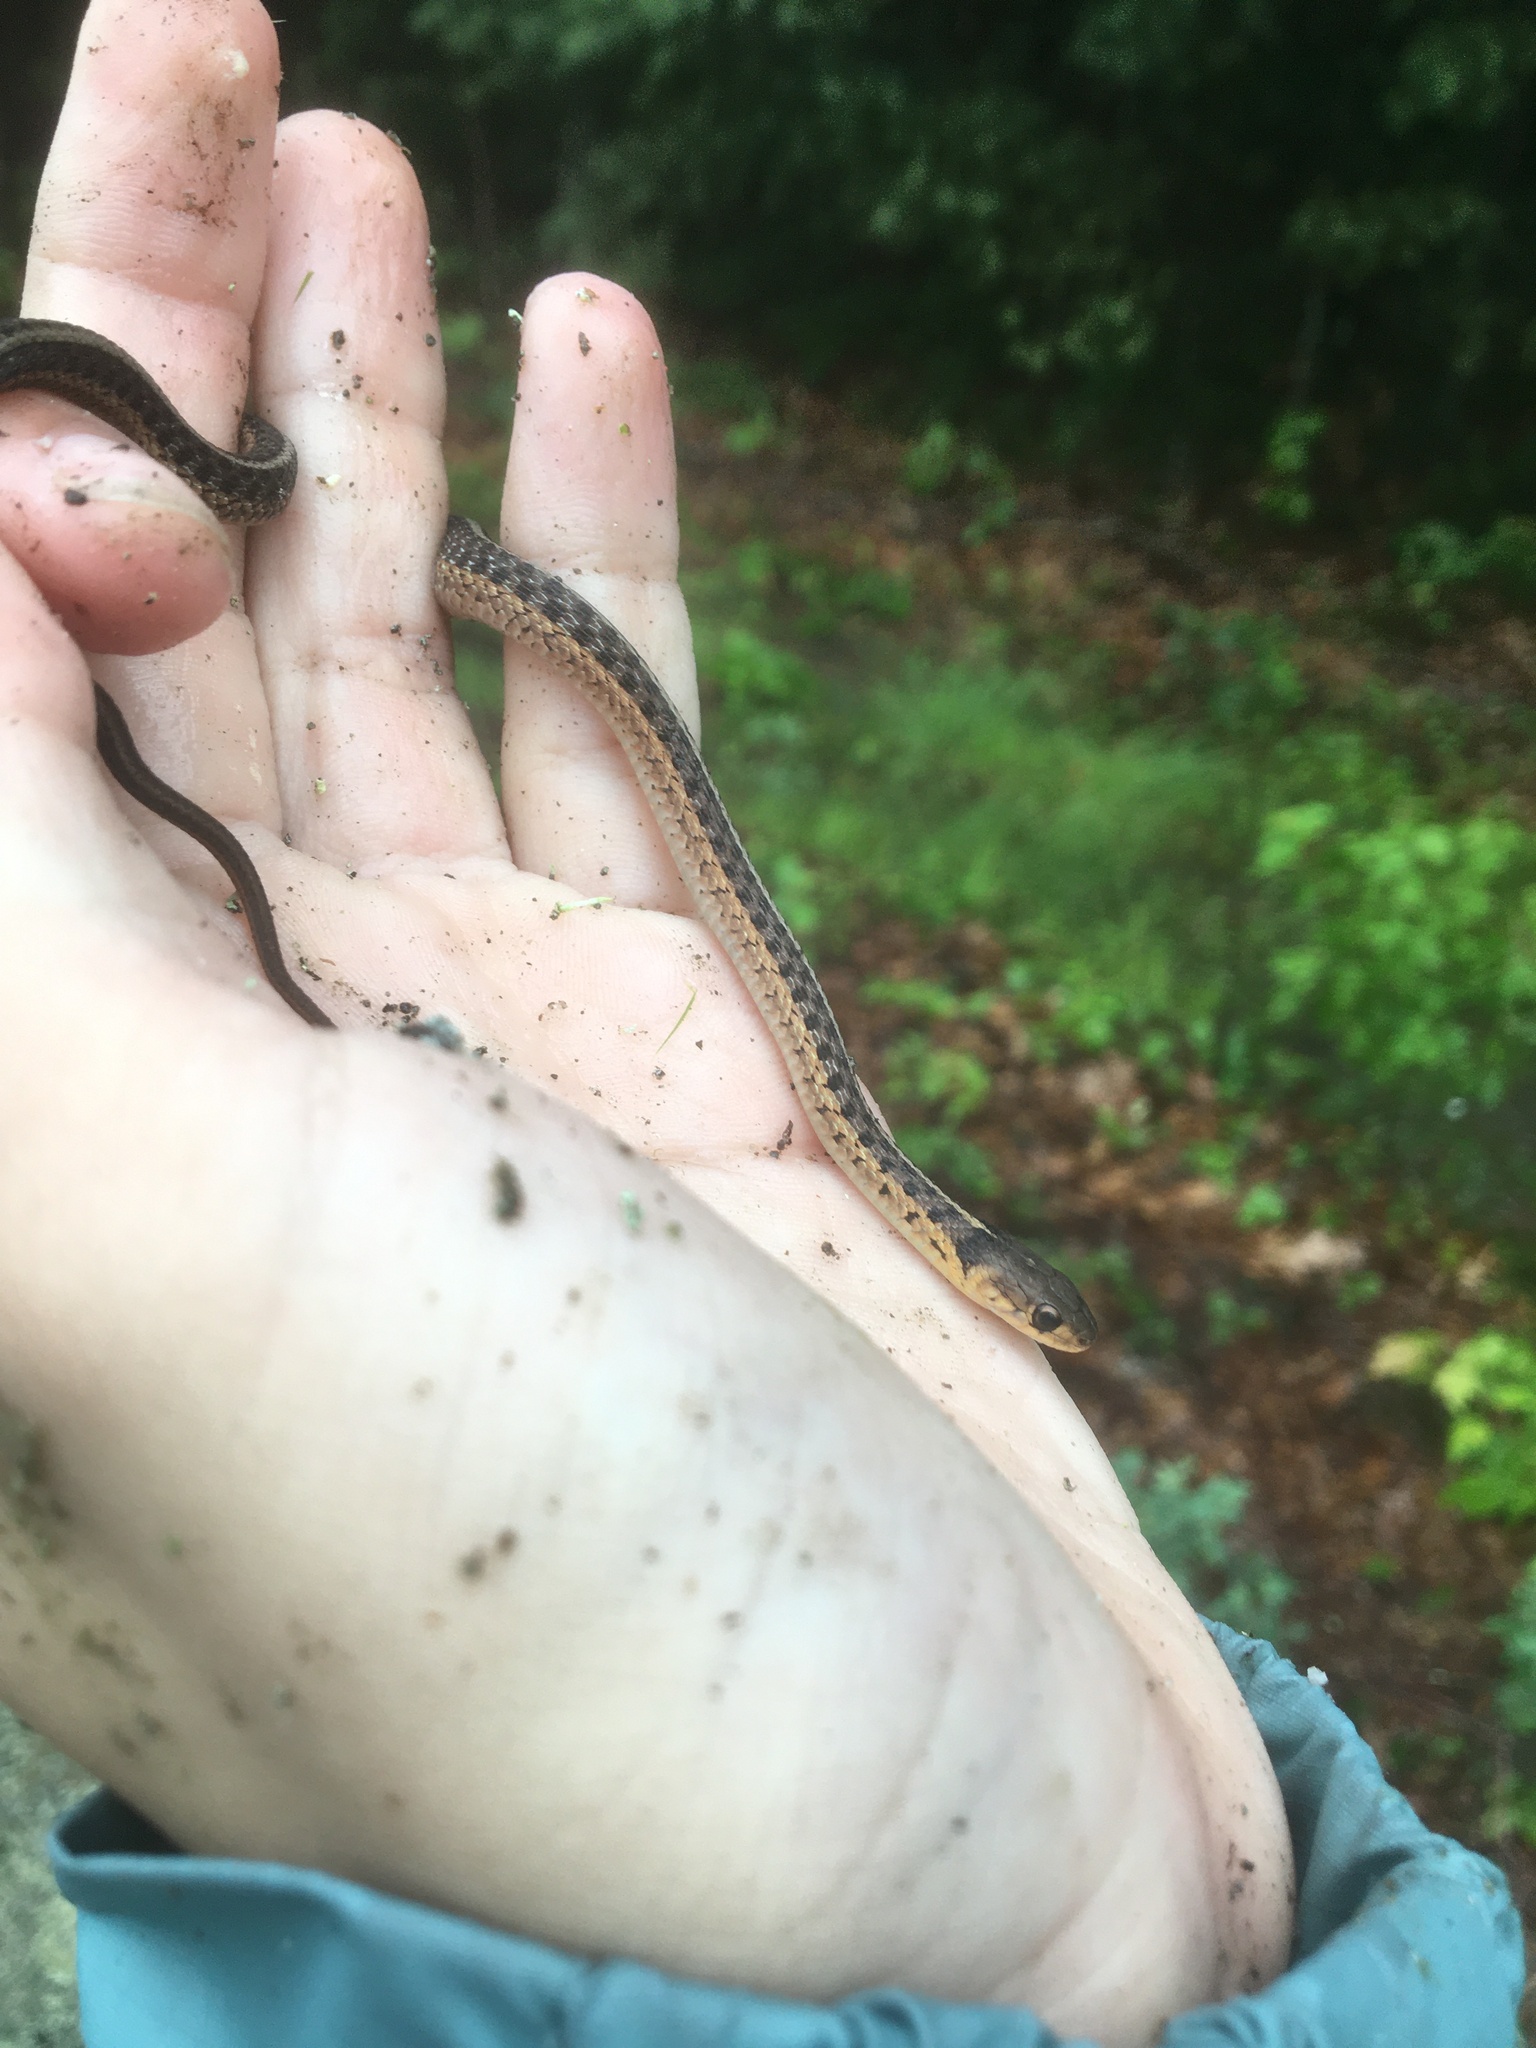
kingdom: Animalia
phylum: Chordata
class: Squamata
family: Colubridae
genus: Thamnophis
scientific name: Thamnophis sirtalis
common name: Common garter snake
